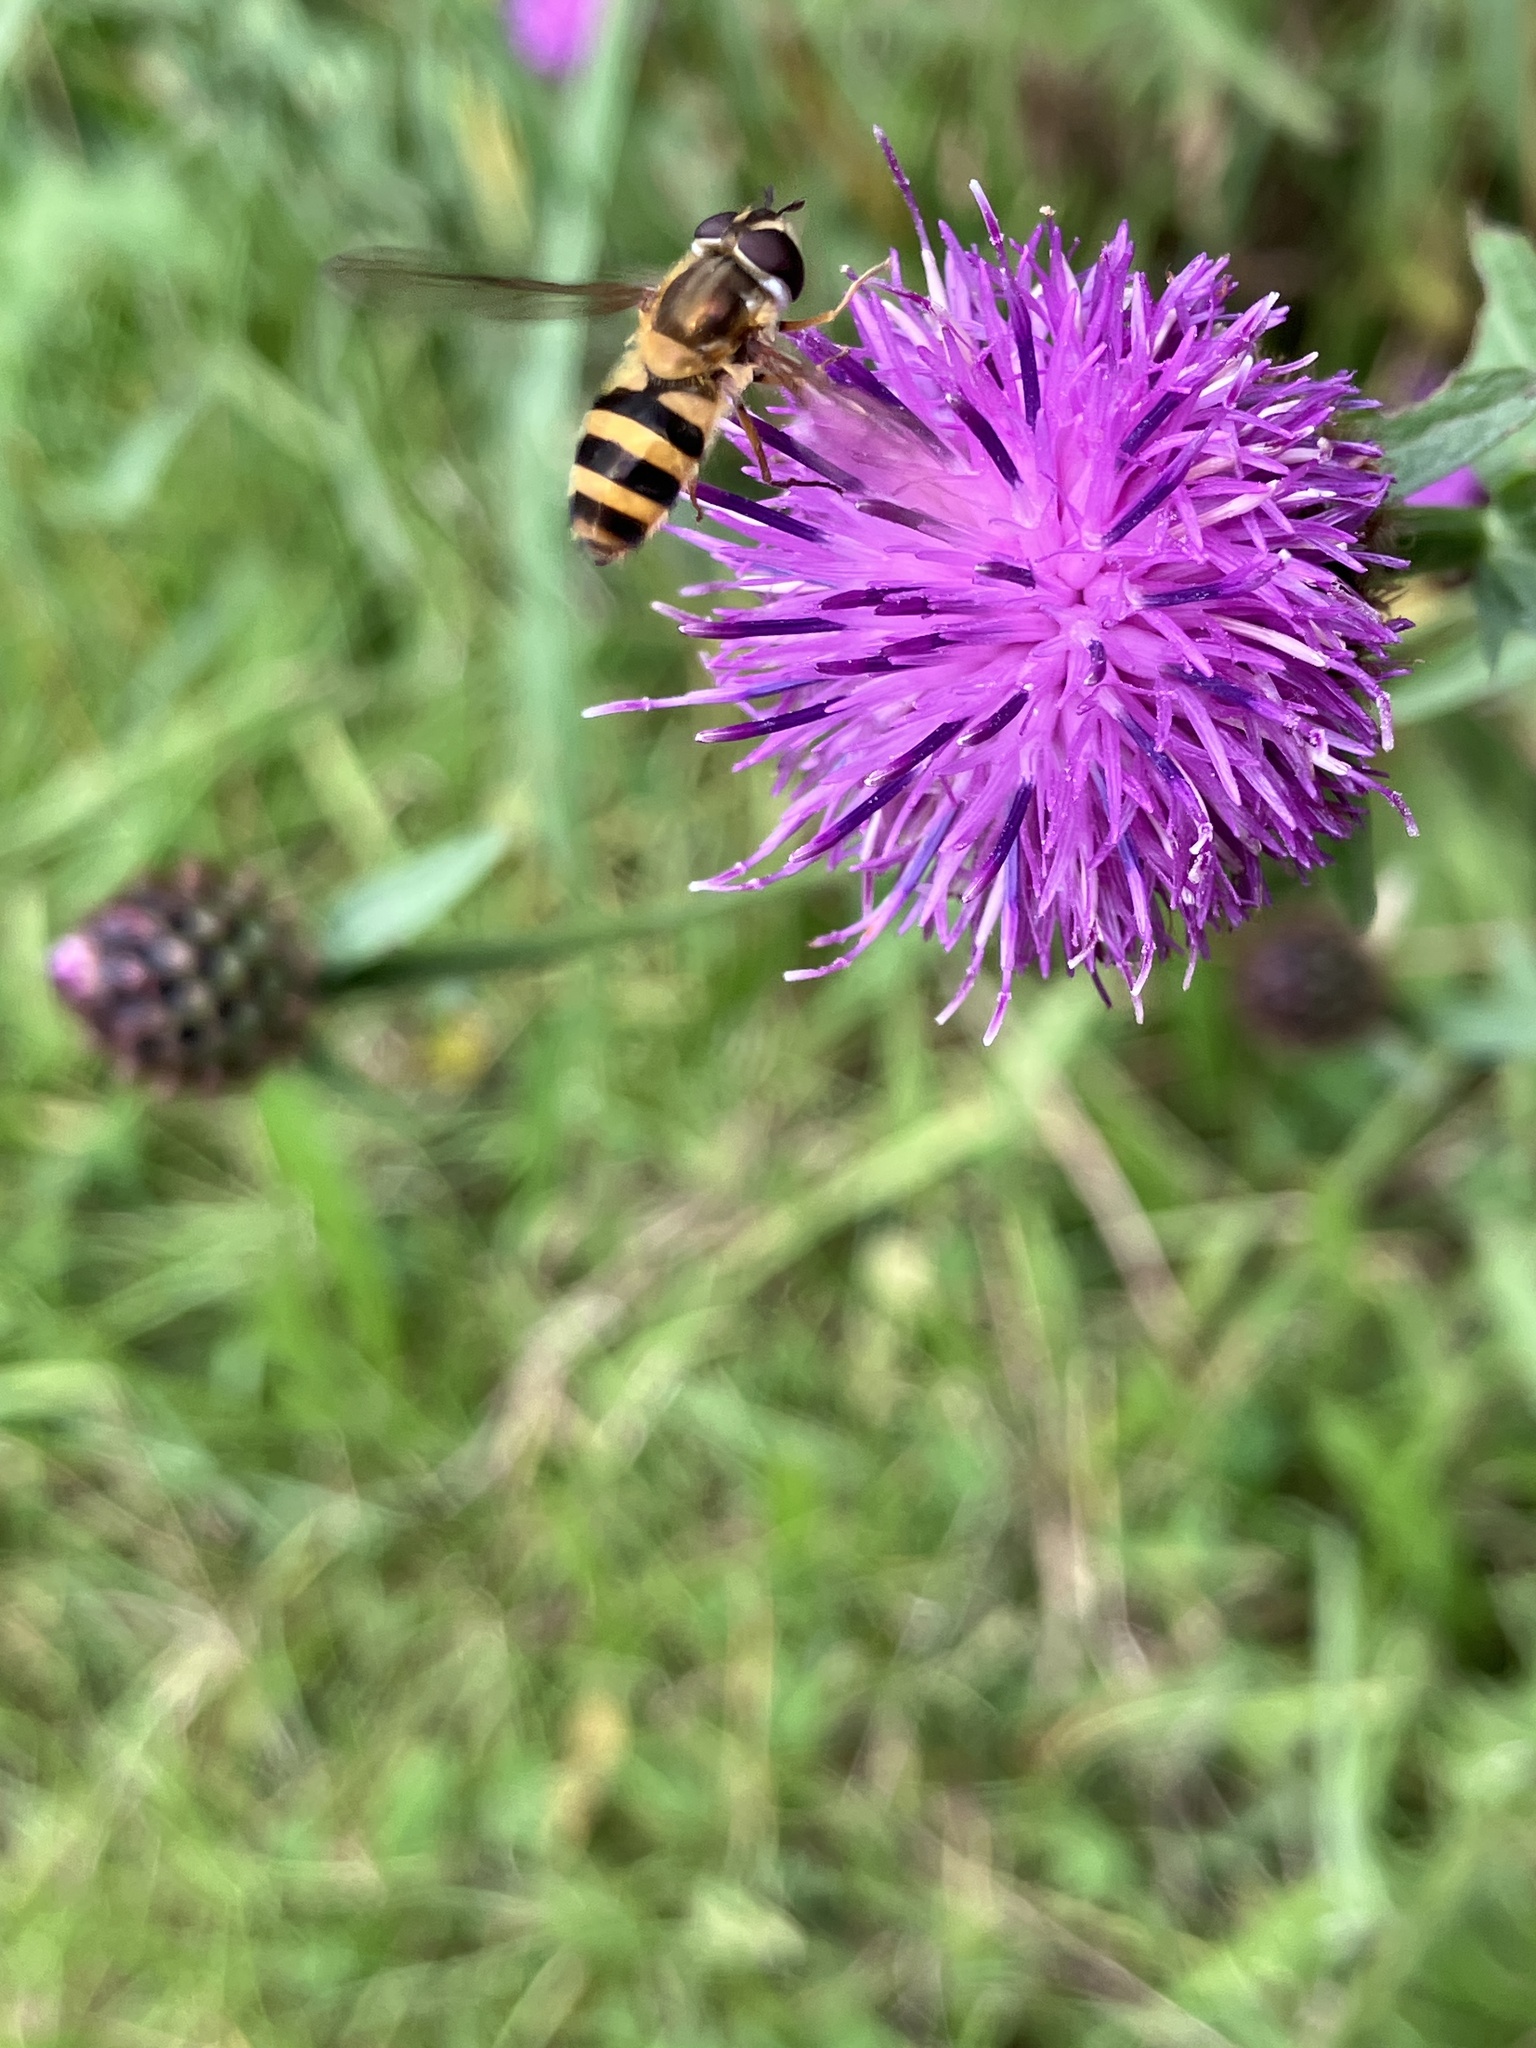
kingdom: Animalia
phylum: Arthropoda
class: Insecta
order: Diptera
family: Syrphidae
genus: Epistrophe
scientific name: Epistrophe grossulariae
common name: Black-horned smoothtail
